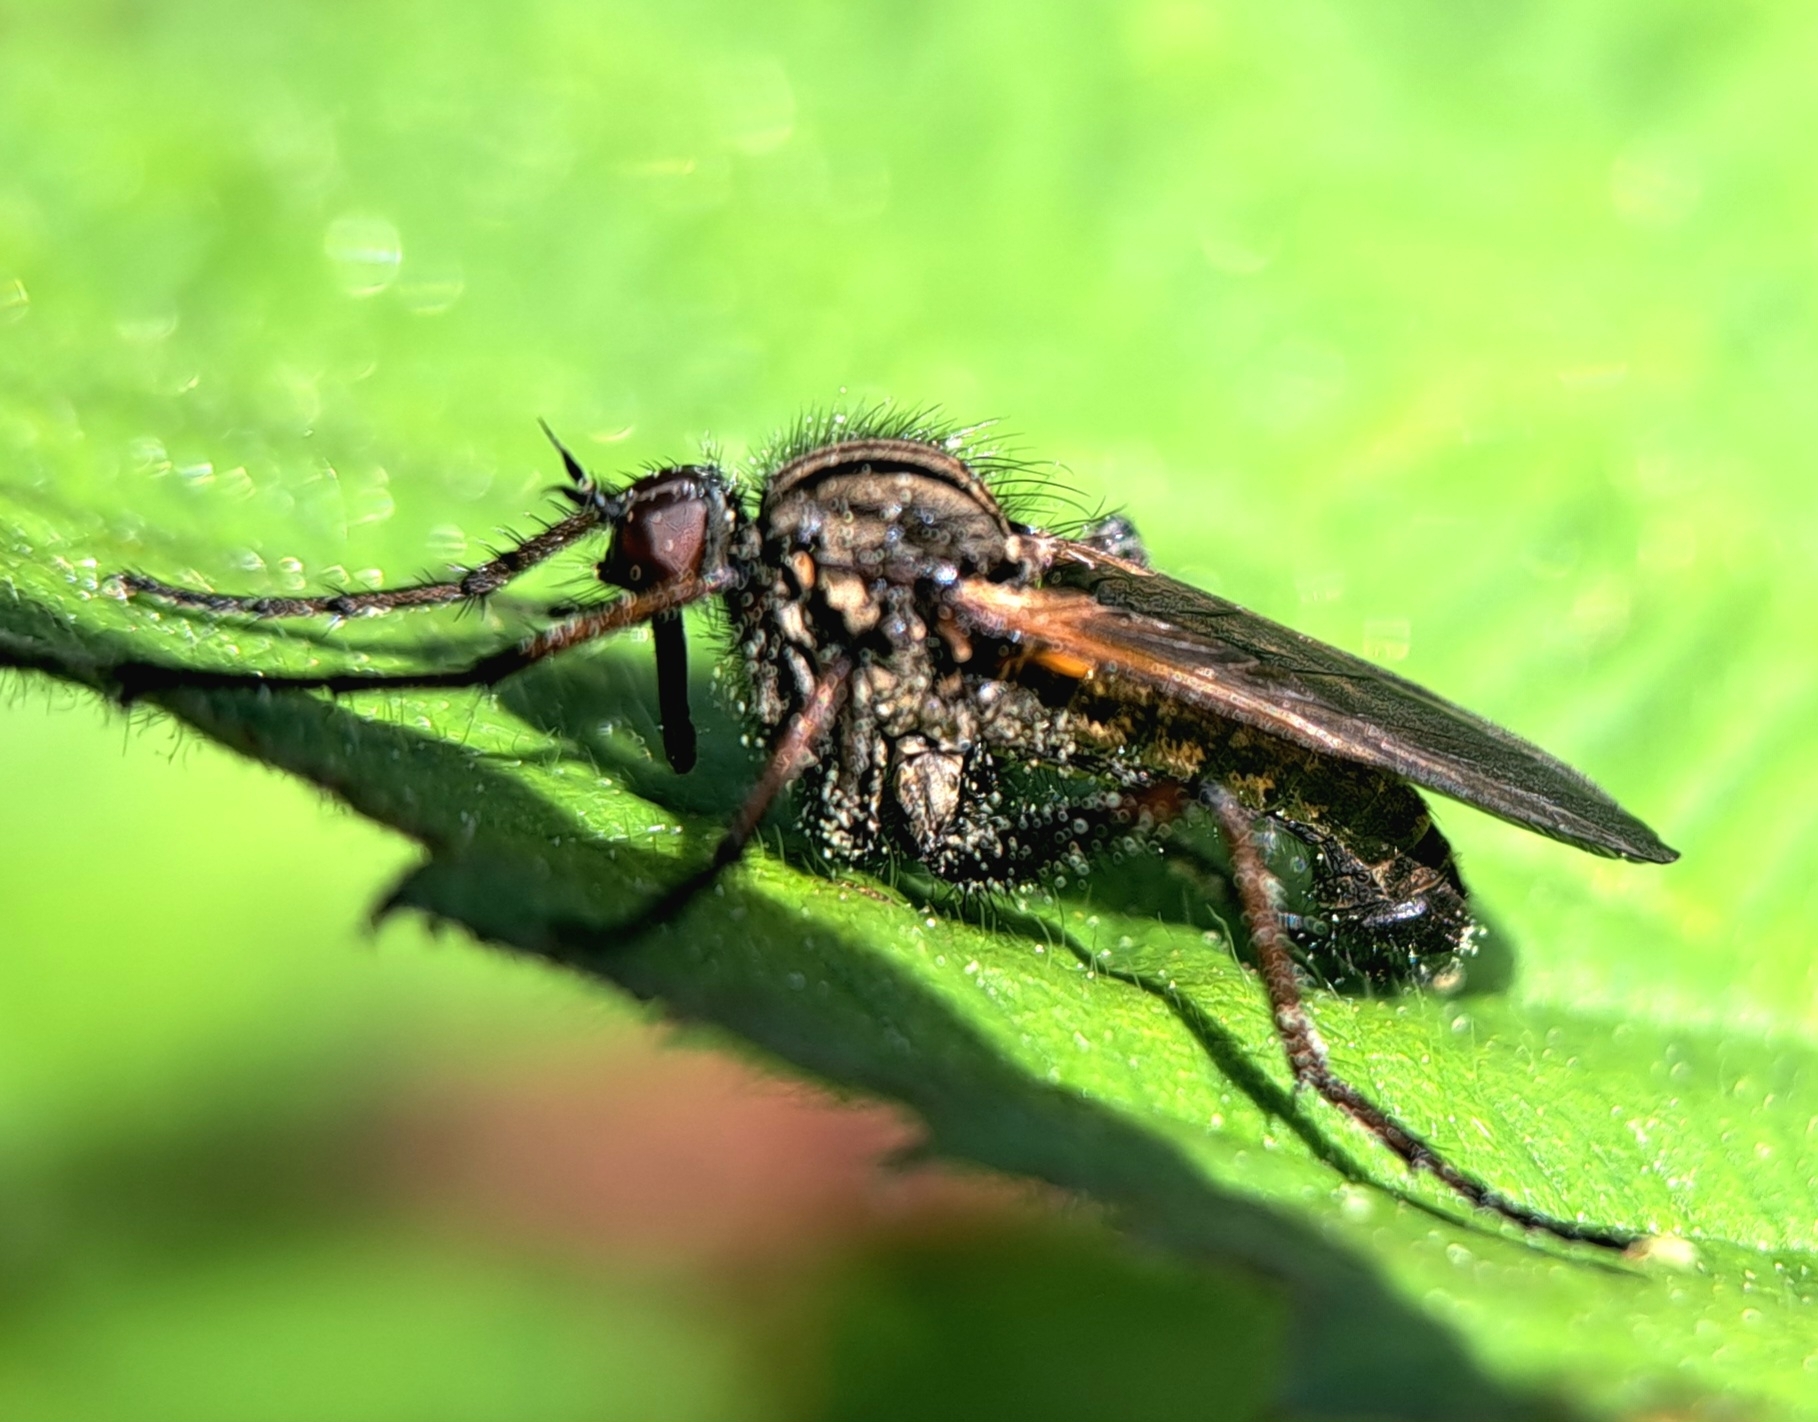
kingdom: Animalia
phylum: Arthropoda
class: Insecta
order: Diptera
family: Empididae
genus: Empis
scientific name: Empis tessellata
